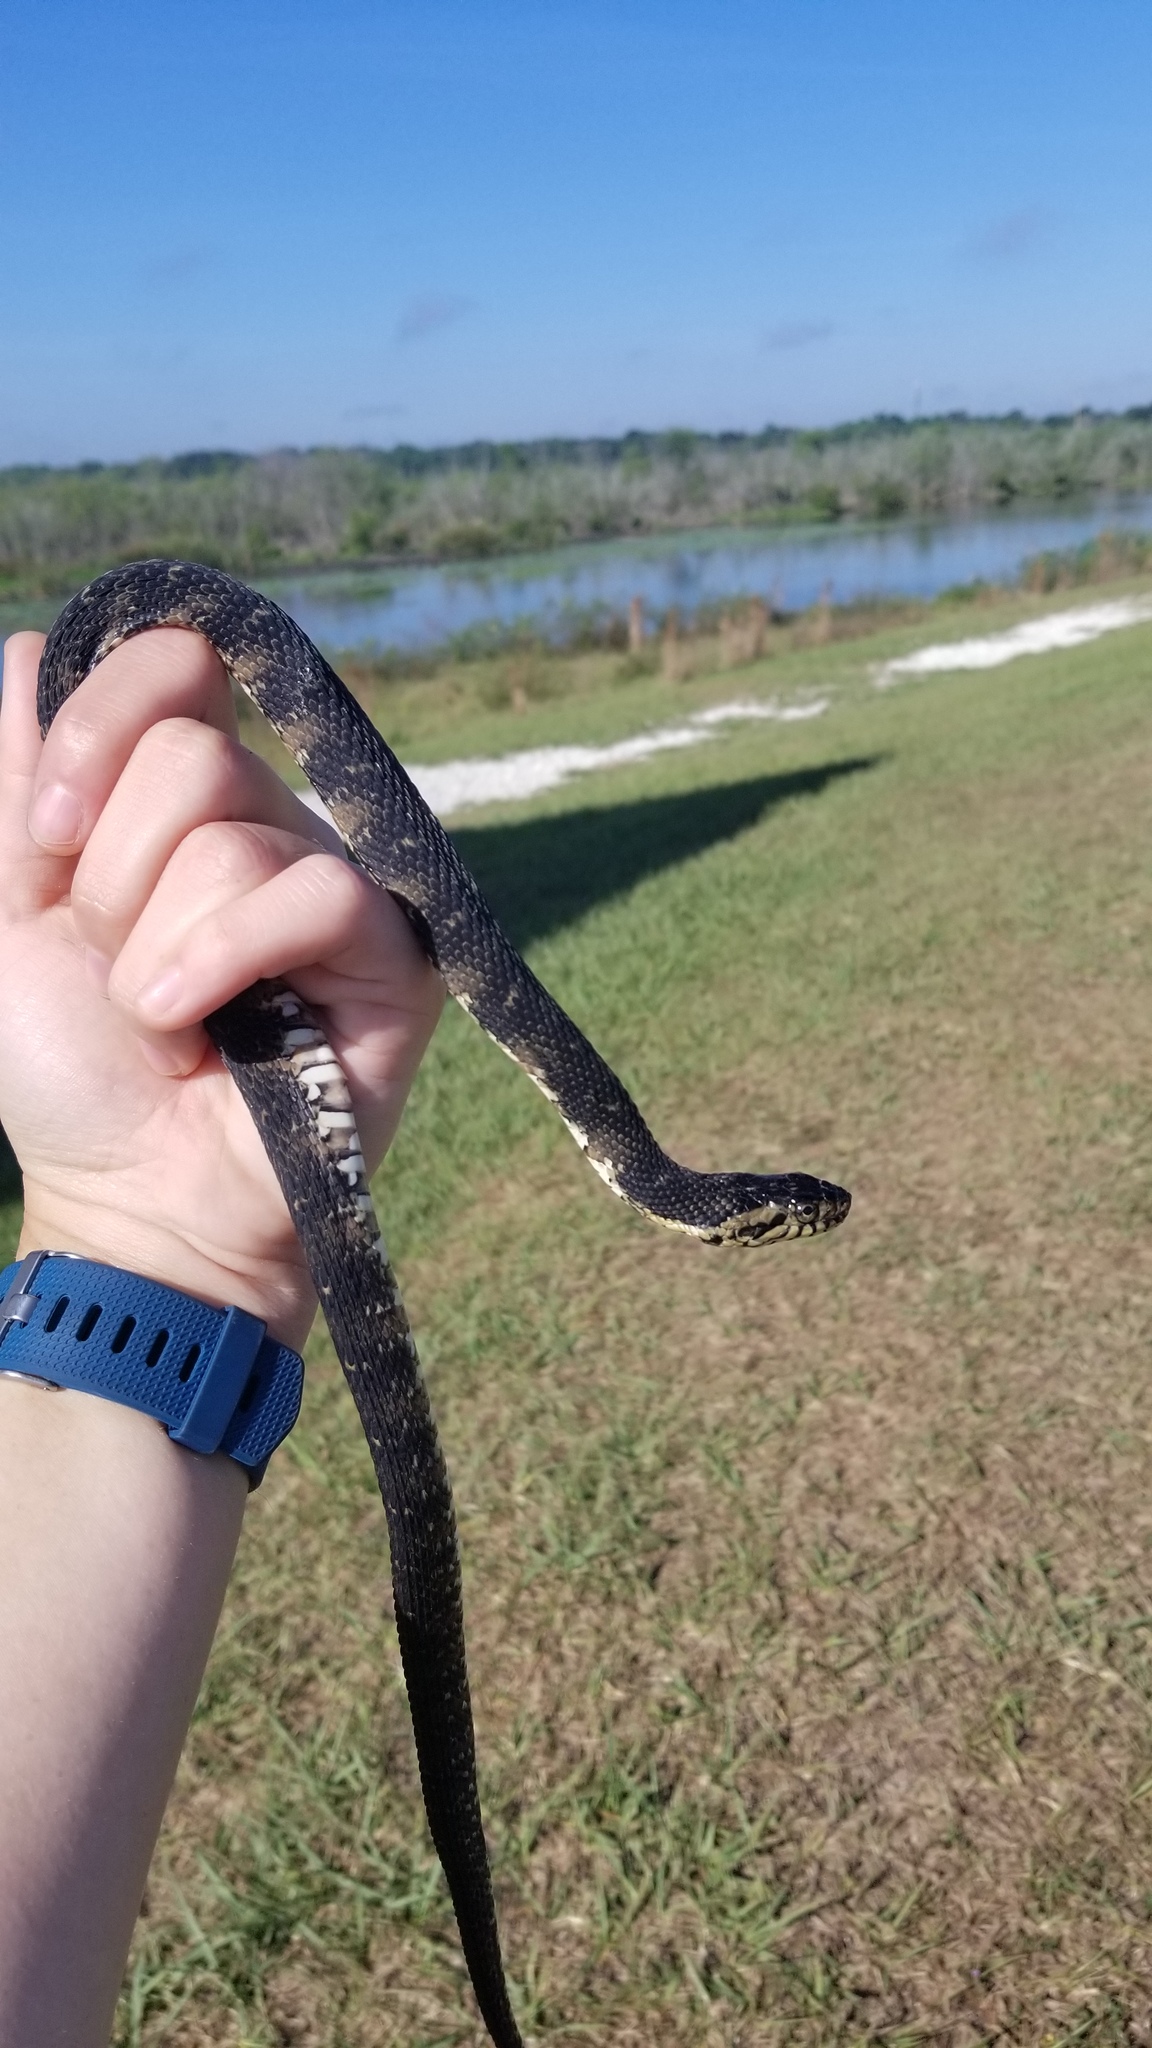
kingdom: Animalia
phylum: Chordata
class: Squamata
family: Colubridae
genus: Nerodia
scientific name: Nerodia fasciata
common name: Southern water snake
